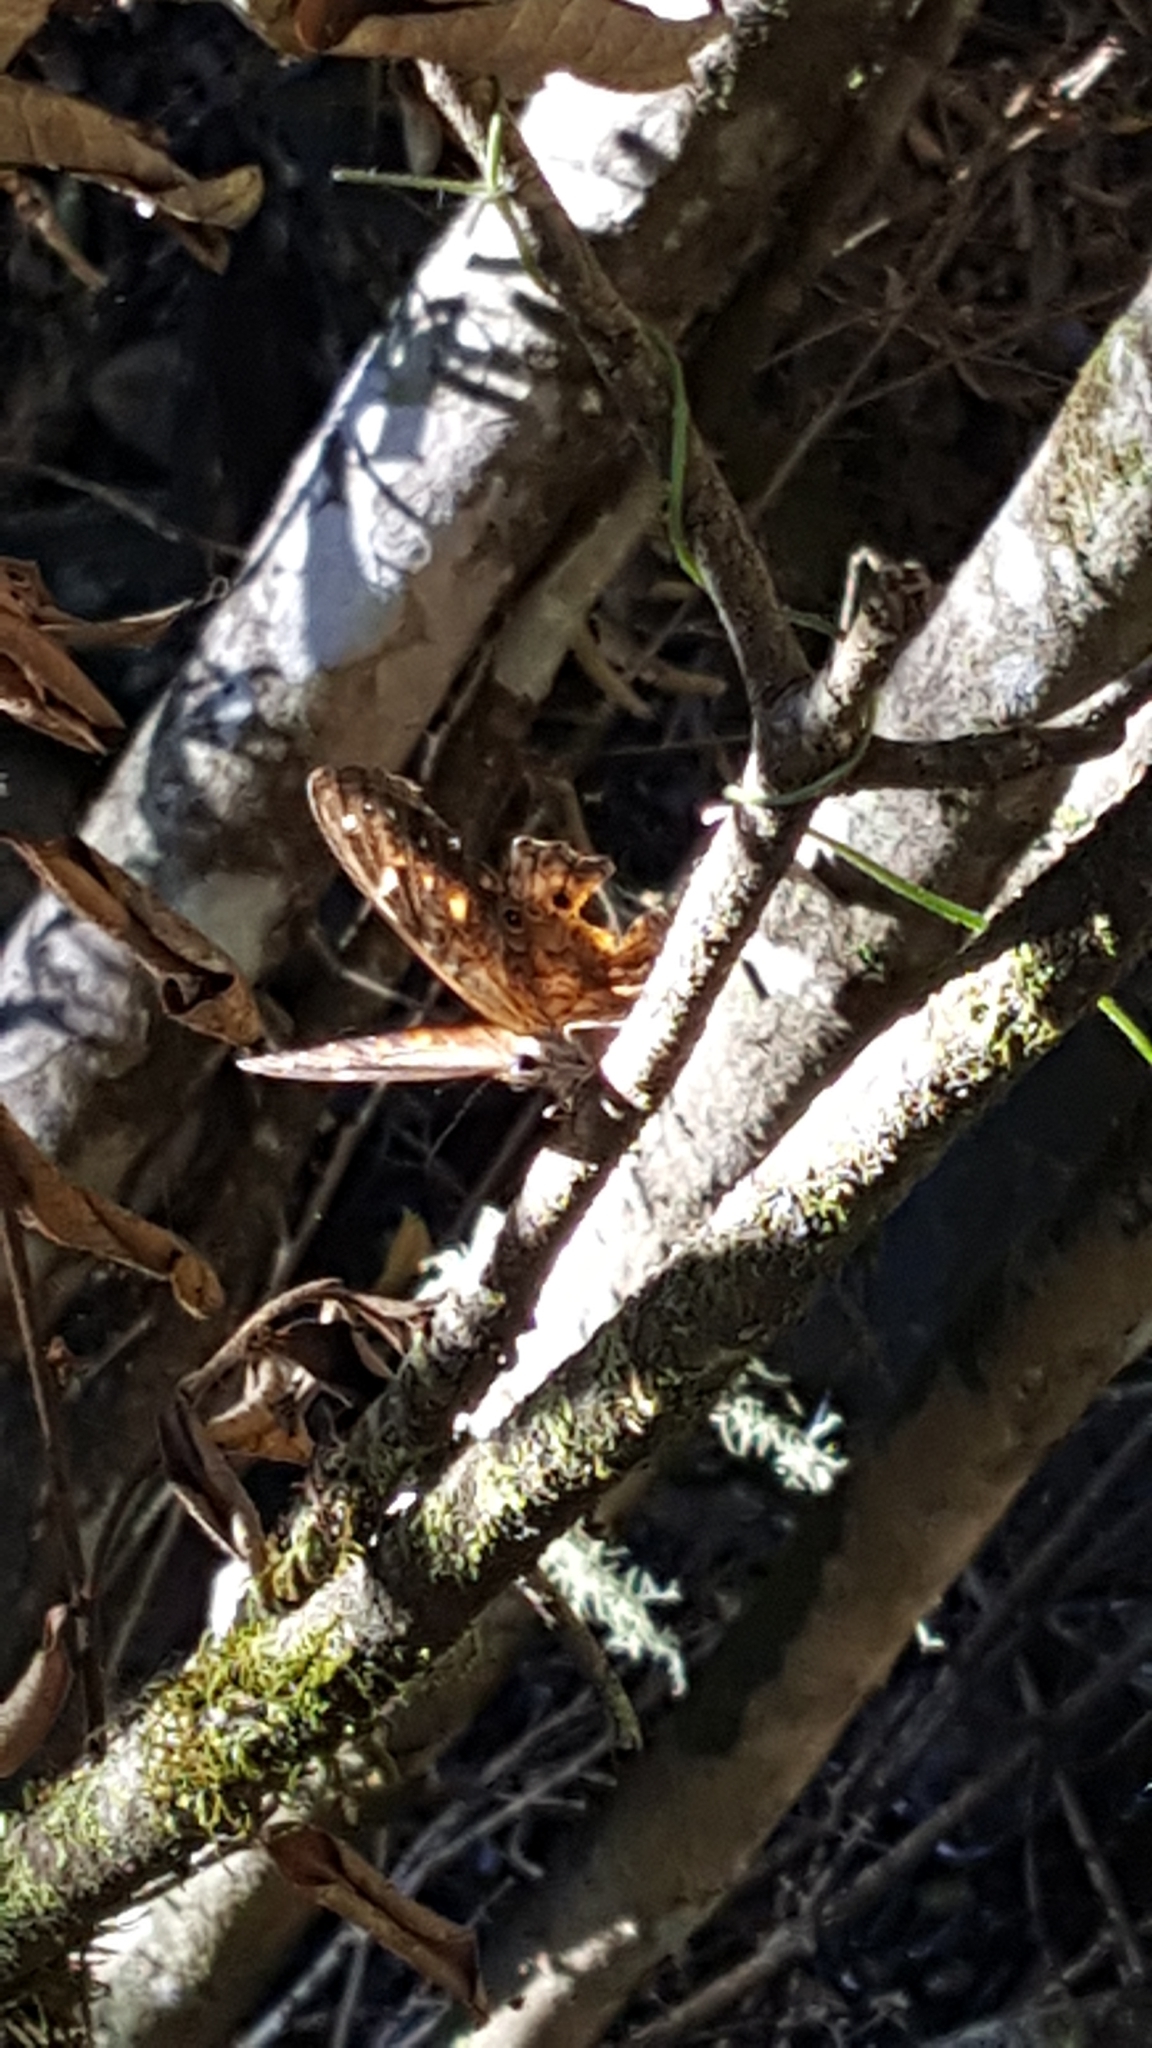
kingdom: Animalia
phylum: Arthropoda
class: Insecta
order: Lepidoptera
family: Nymphalidae
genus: Paralethe
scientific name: Paralethe dendrophilus
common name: Bush beauty
